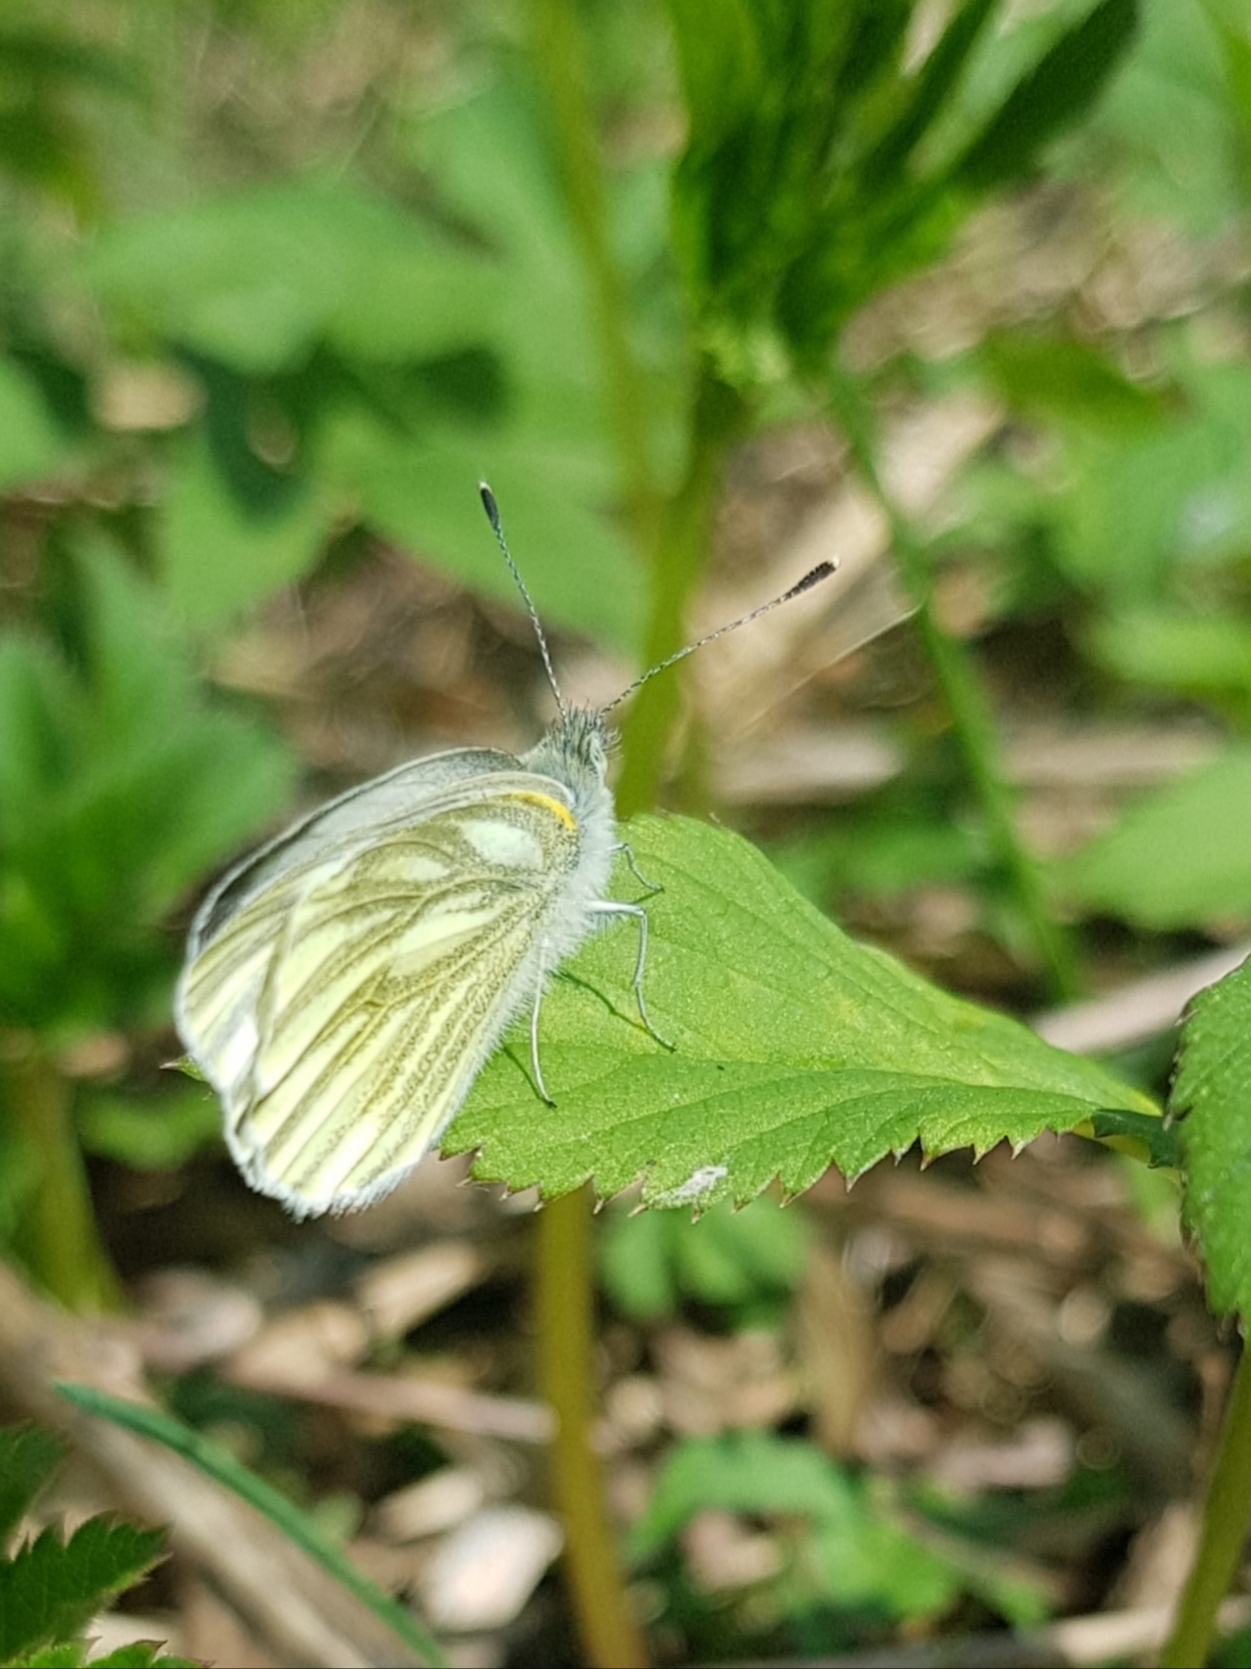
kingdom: Animalia
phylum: Arthropoda
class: Insecta
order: Lepidoptera
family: Pieridae
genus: Pieris
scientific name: Pieris napi
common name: Green-veined white
